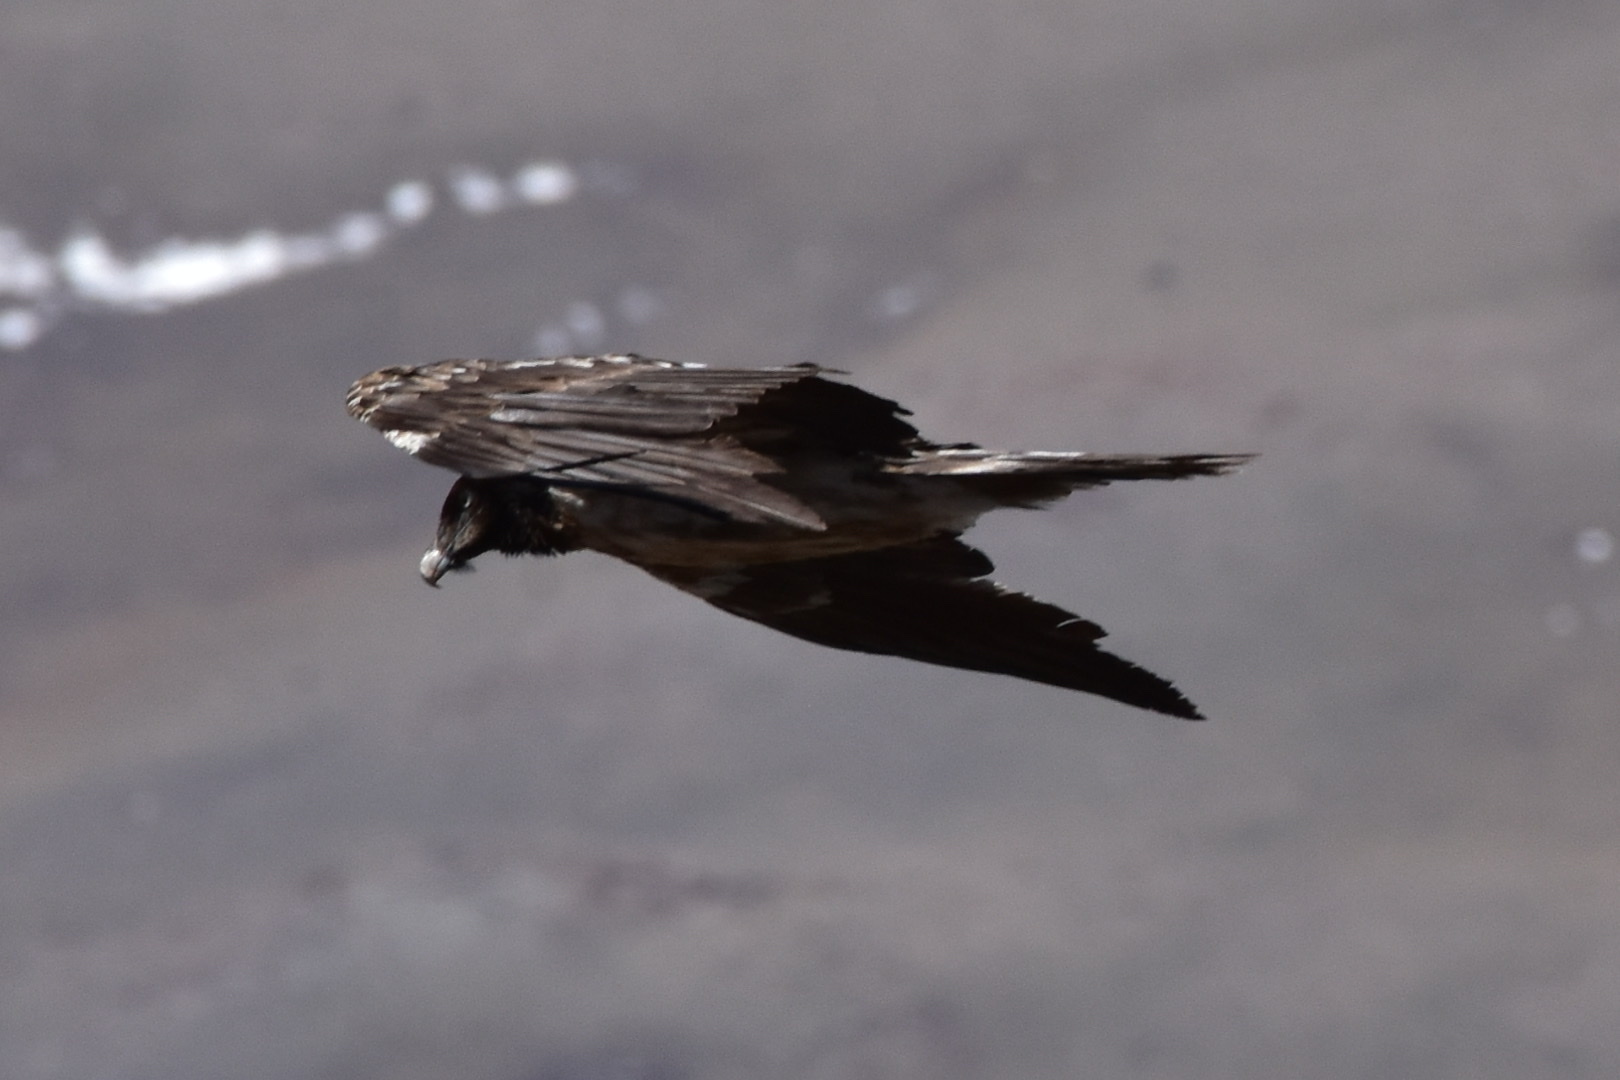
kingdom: Animalia
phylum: Chordata
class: Aves
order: Accipitriformes
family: Accipitridae
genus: Gypaetus
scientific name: Gypaetus barbatus
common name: Bearded vulture
